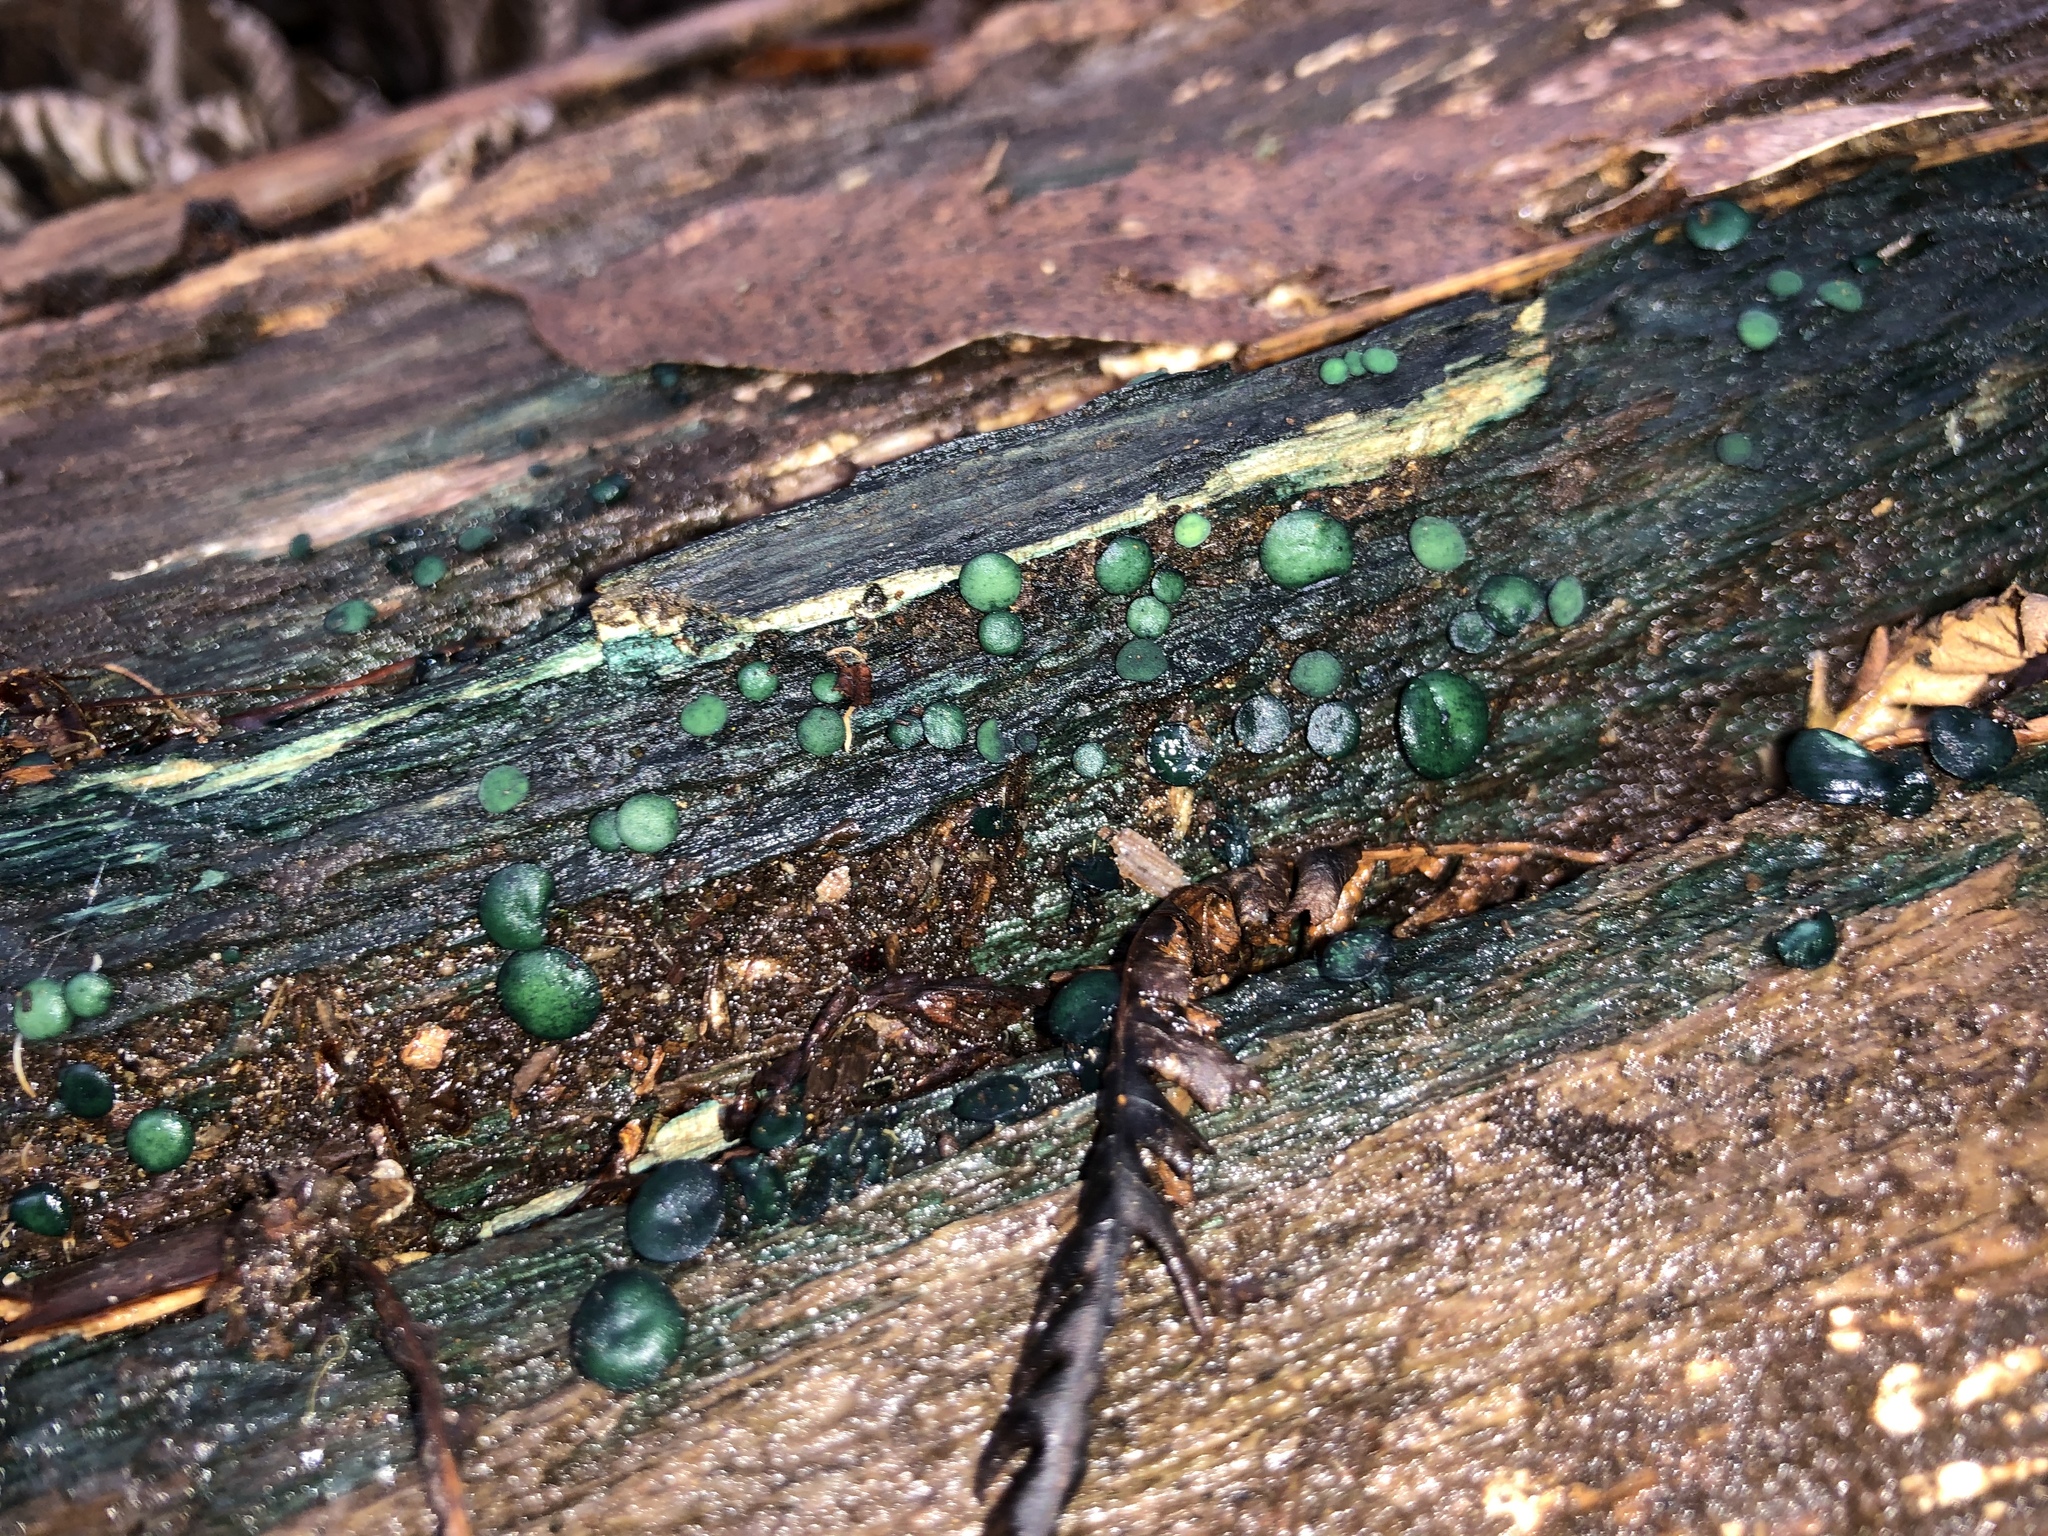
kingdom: Fungi
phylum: Ascomycota
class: Leotiomycetes
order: Helotiales
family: Chlorociboriaceae
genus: Chlorociboria
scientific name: Chlorociboria
